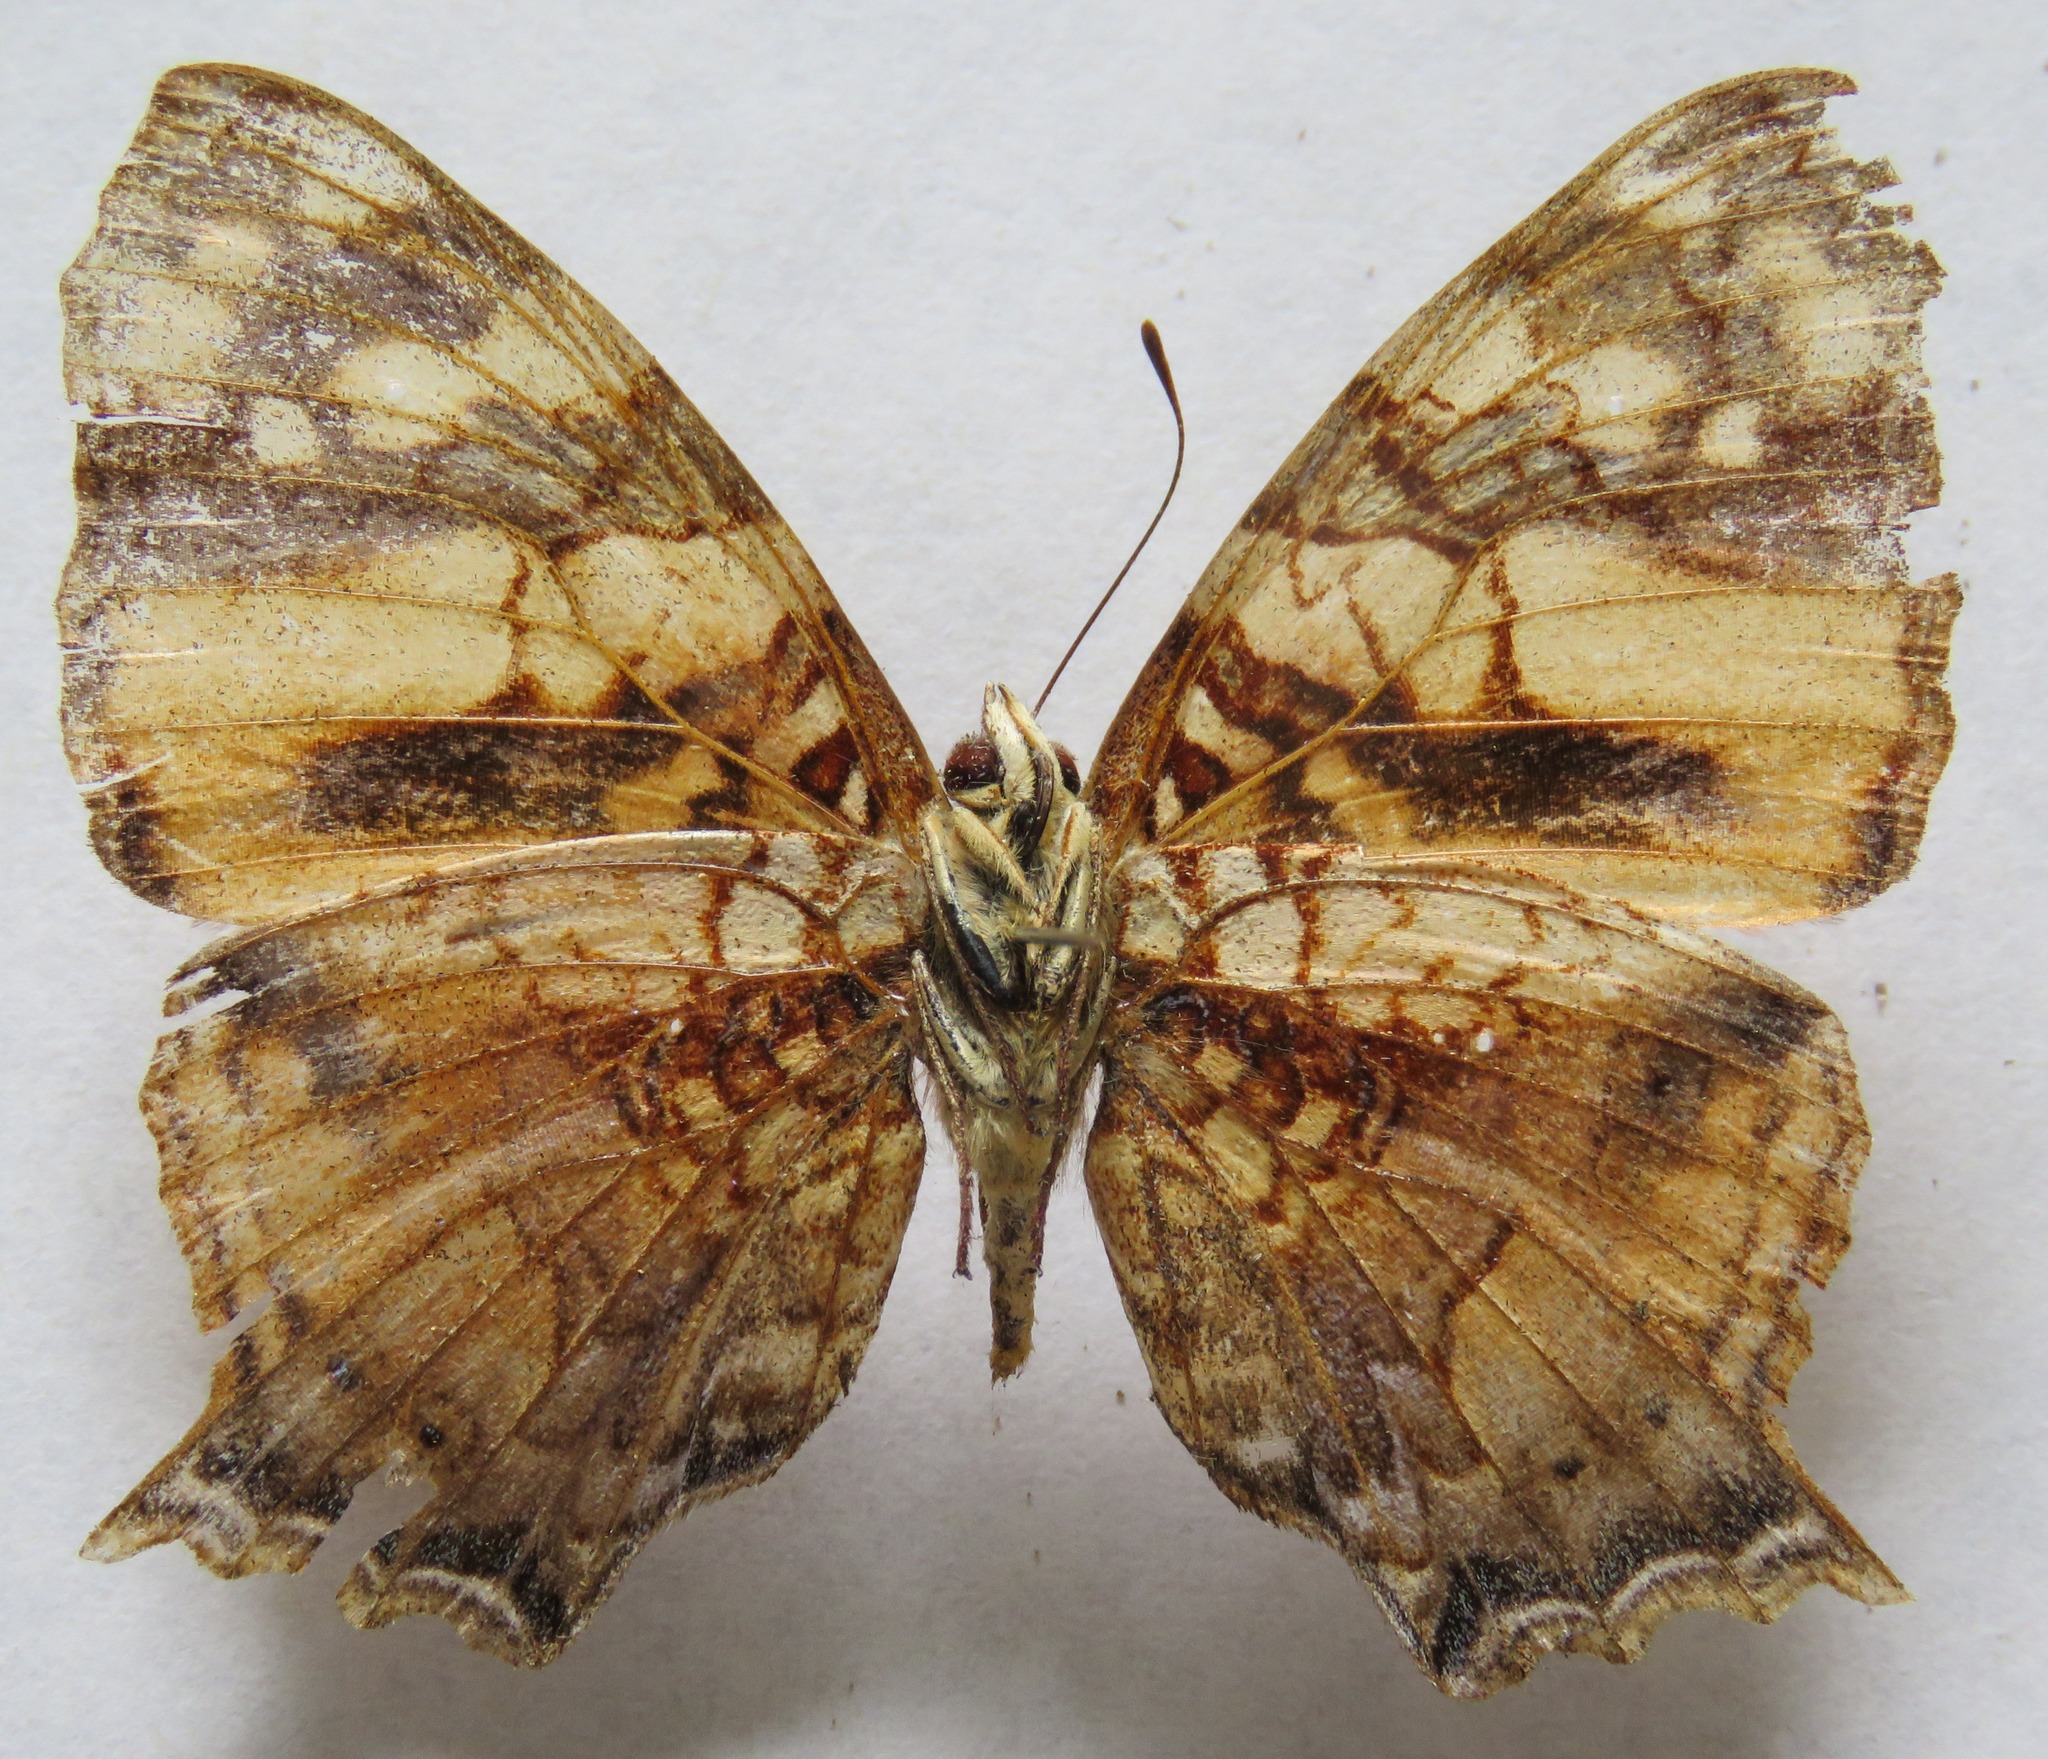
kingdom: Animalia
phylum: Arthropoda
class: Insecta
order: Lepidoptera
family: Nymphalidae
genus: Hypanartia
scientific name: Hypanartia lethe
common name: Orange mapwing
